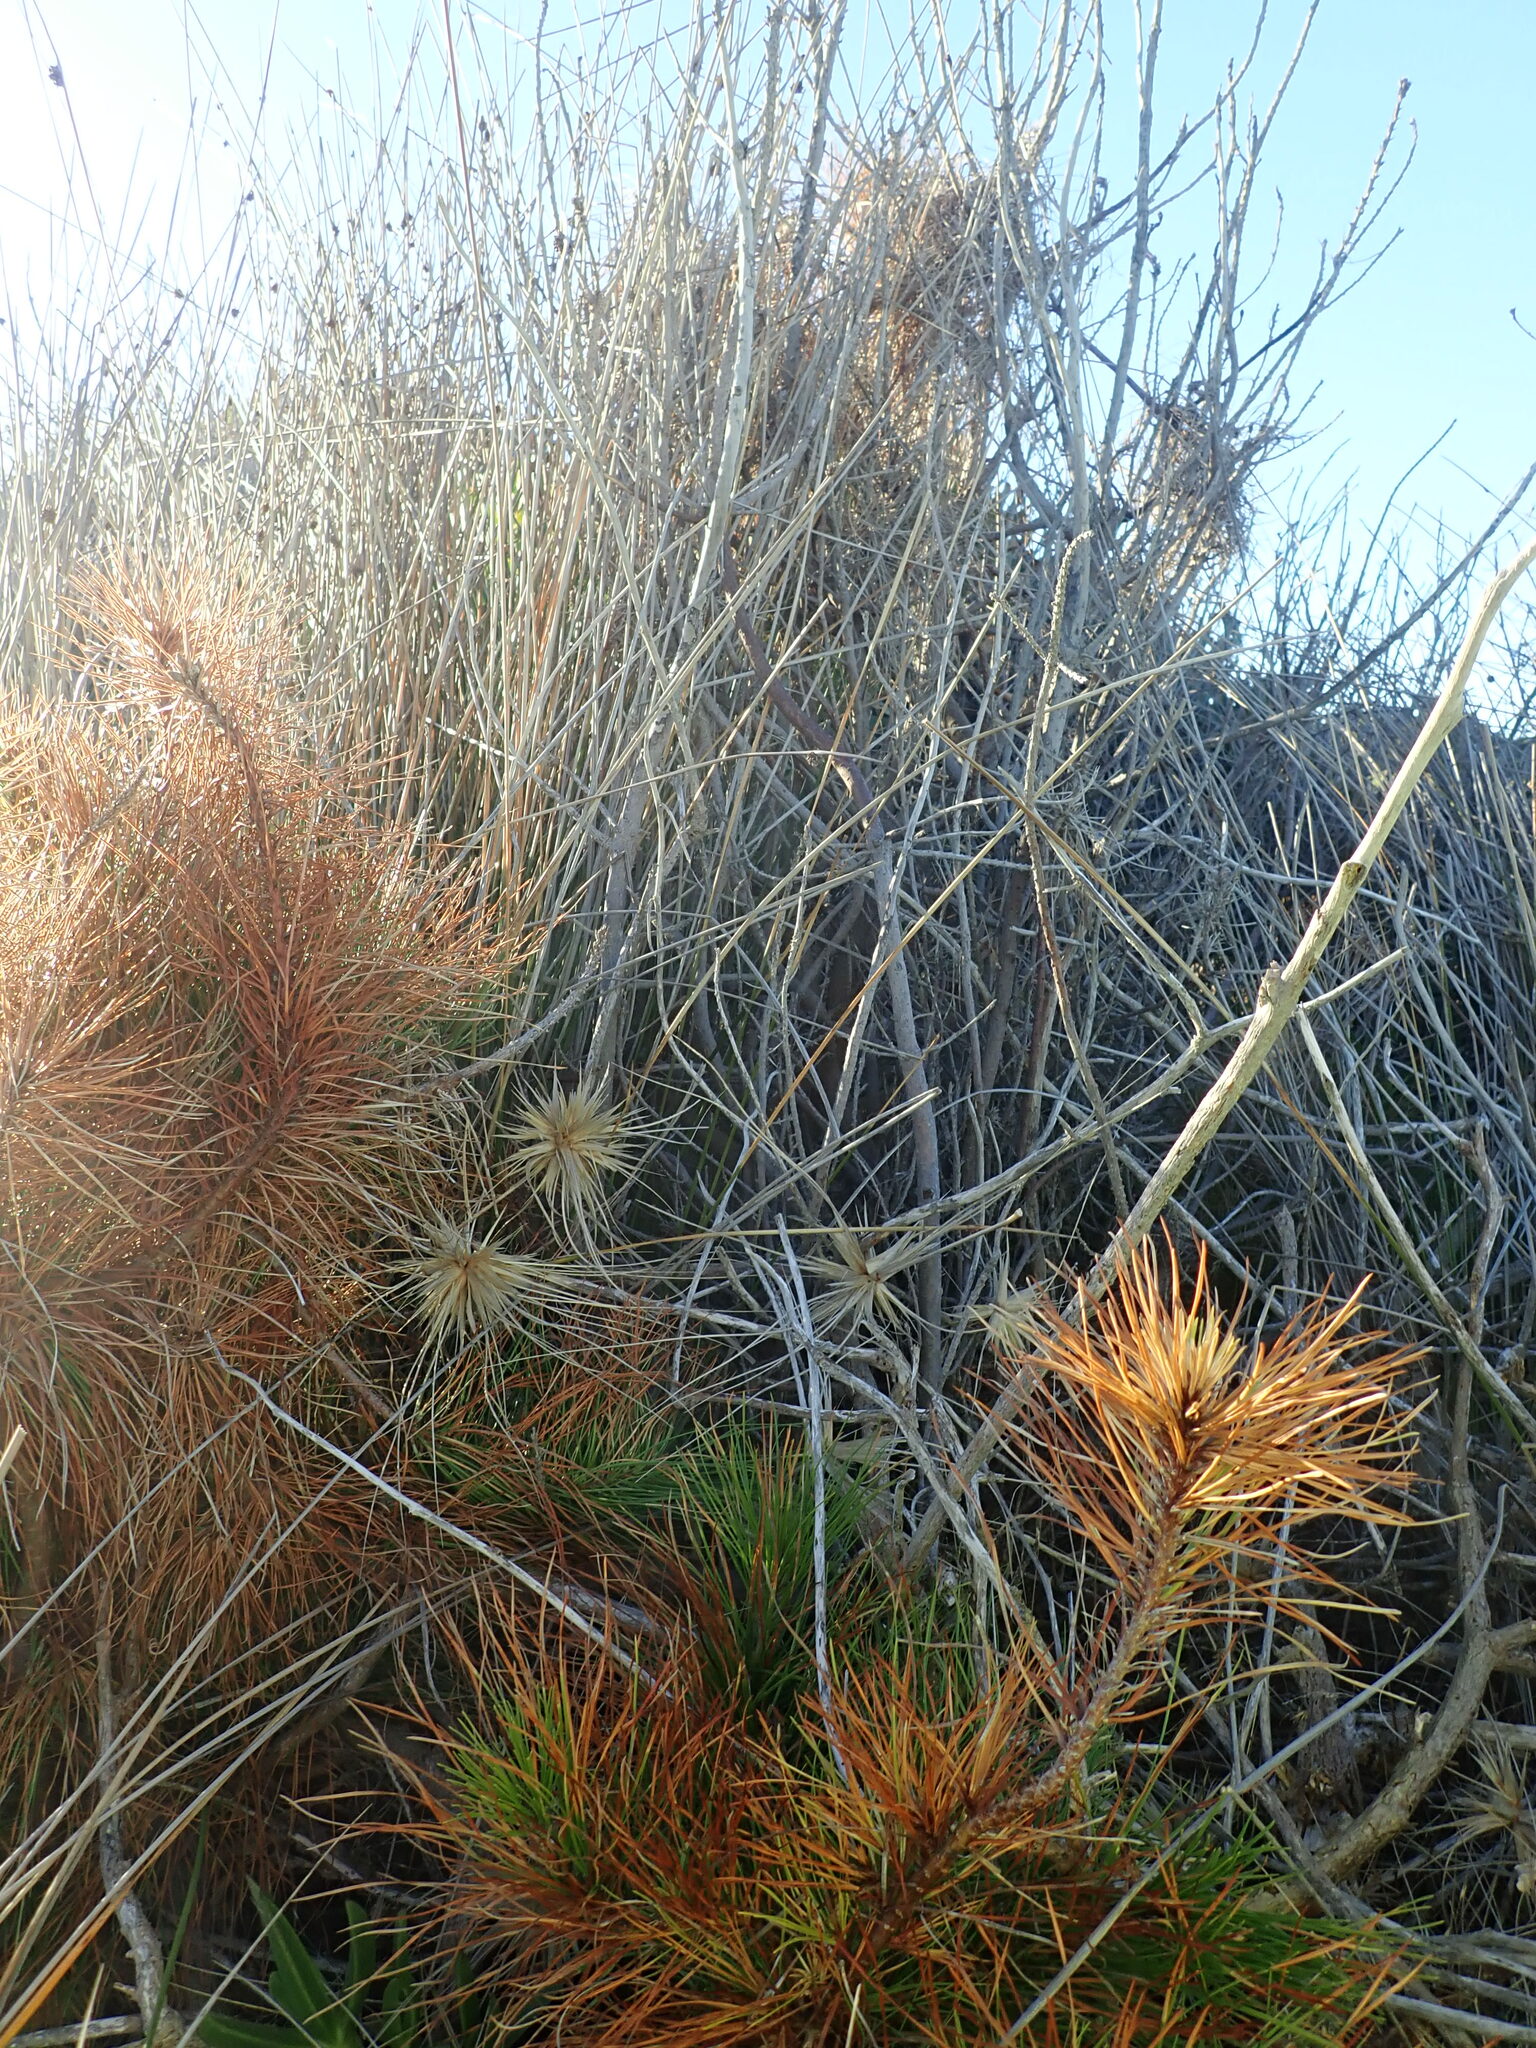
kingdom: Plantae
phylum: Tracheophyta
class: Pinopsida
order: Pinales
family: Pinaceae
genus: Pinus
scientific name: Pinus radiata
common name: Monterey pine
